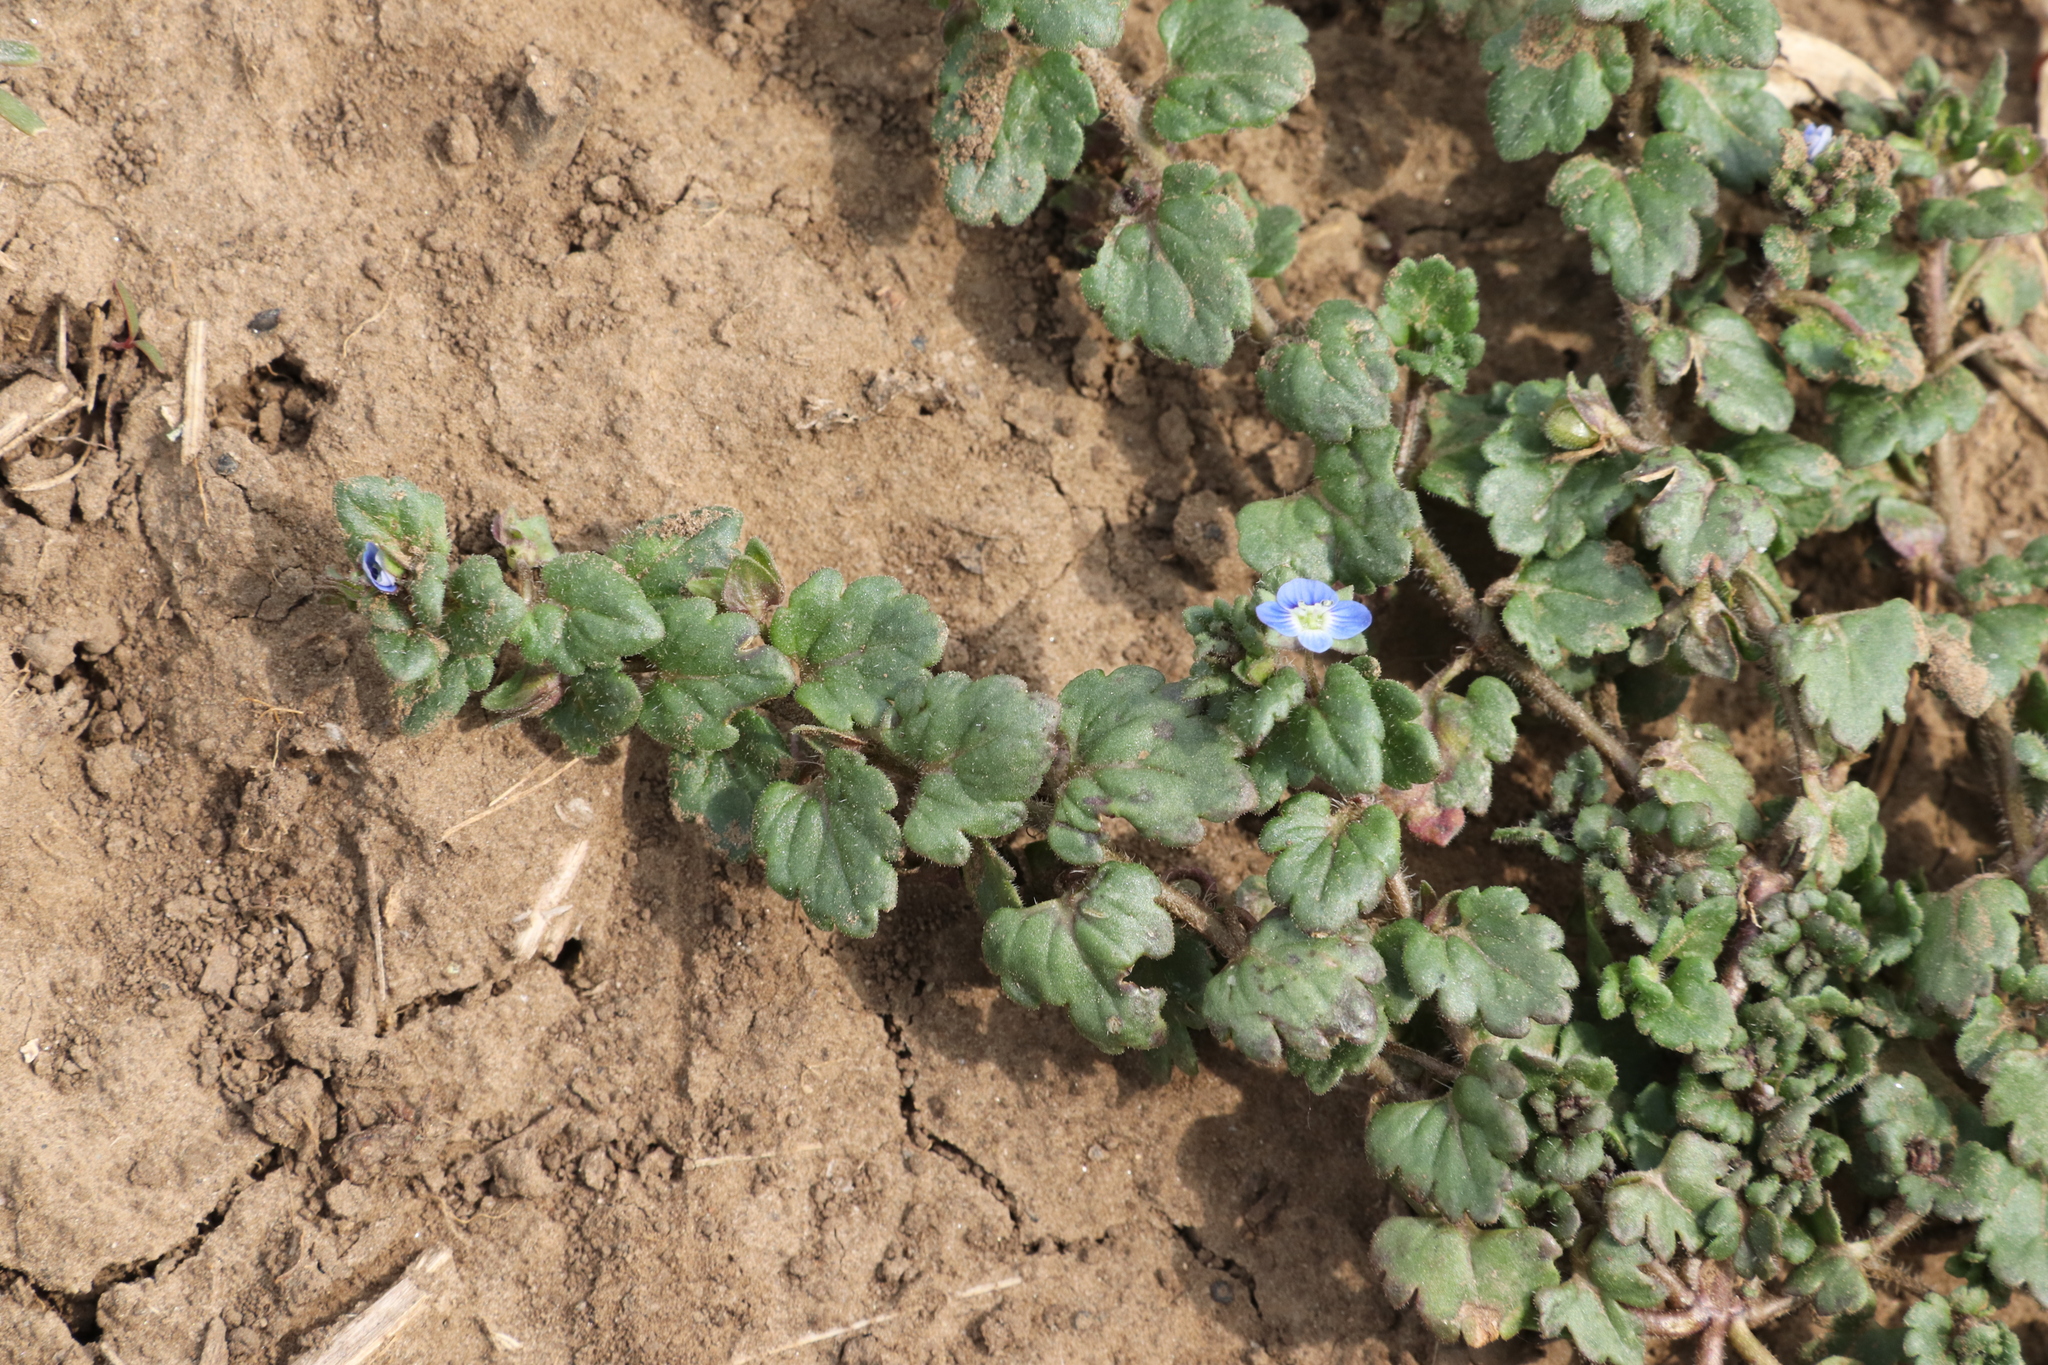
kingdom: Plantae
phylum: Tracheophyta
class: Magnoliopsida
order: Lamiales
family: Plantaginaceae
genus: Veronica
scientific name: Veronica polita
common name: Grey field-speedwell
